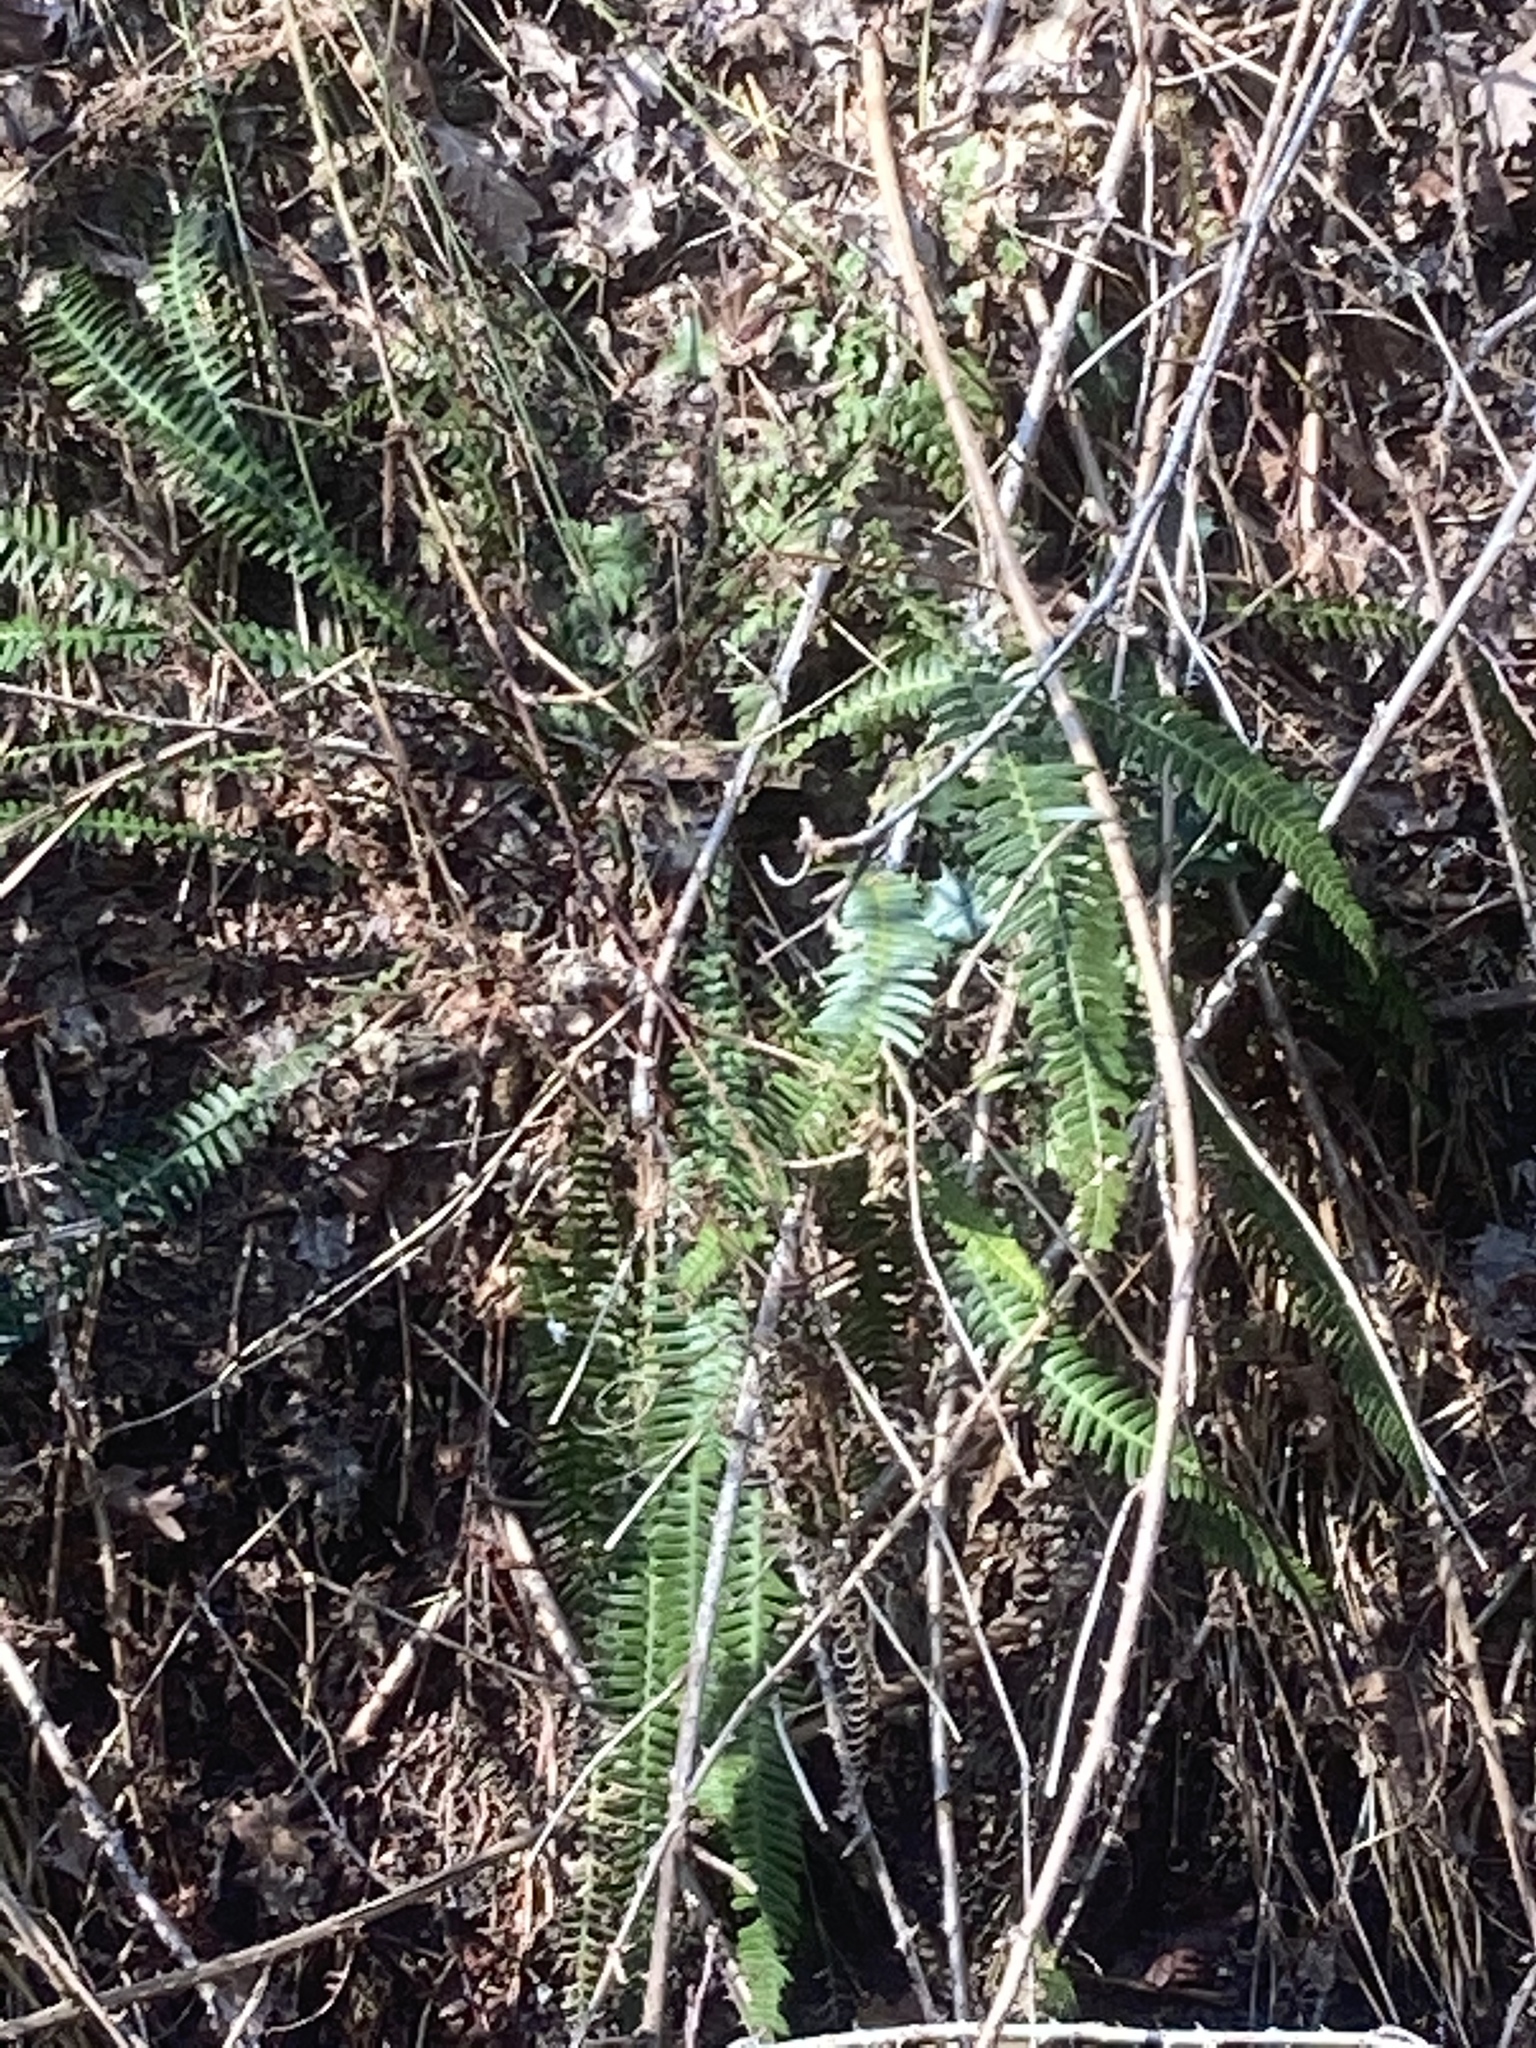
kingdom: Plantae
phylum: Tracheophyta
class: Polypodiopsida
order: Polypodiales
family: Blechnaceae
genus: Struthiopteris
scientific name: Struthiopteris spicant
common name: Deer fern
